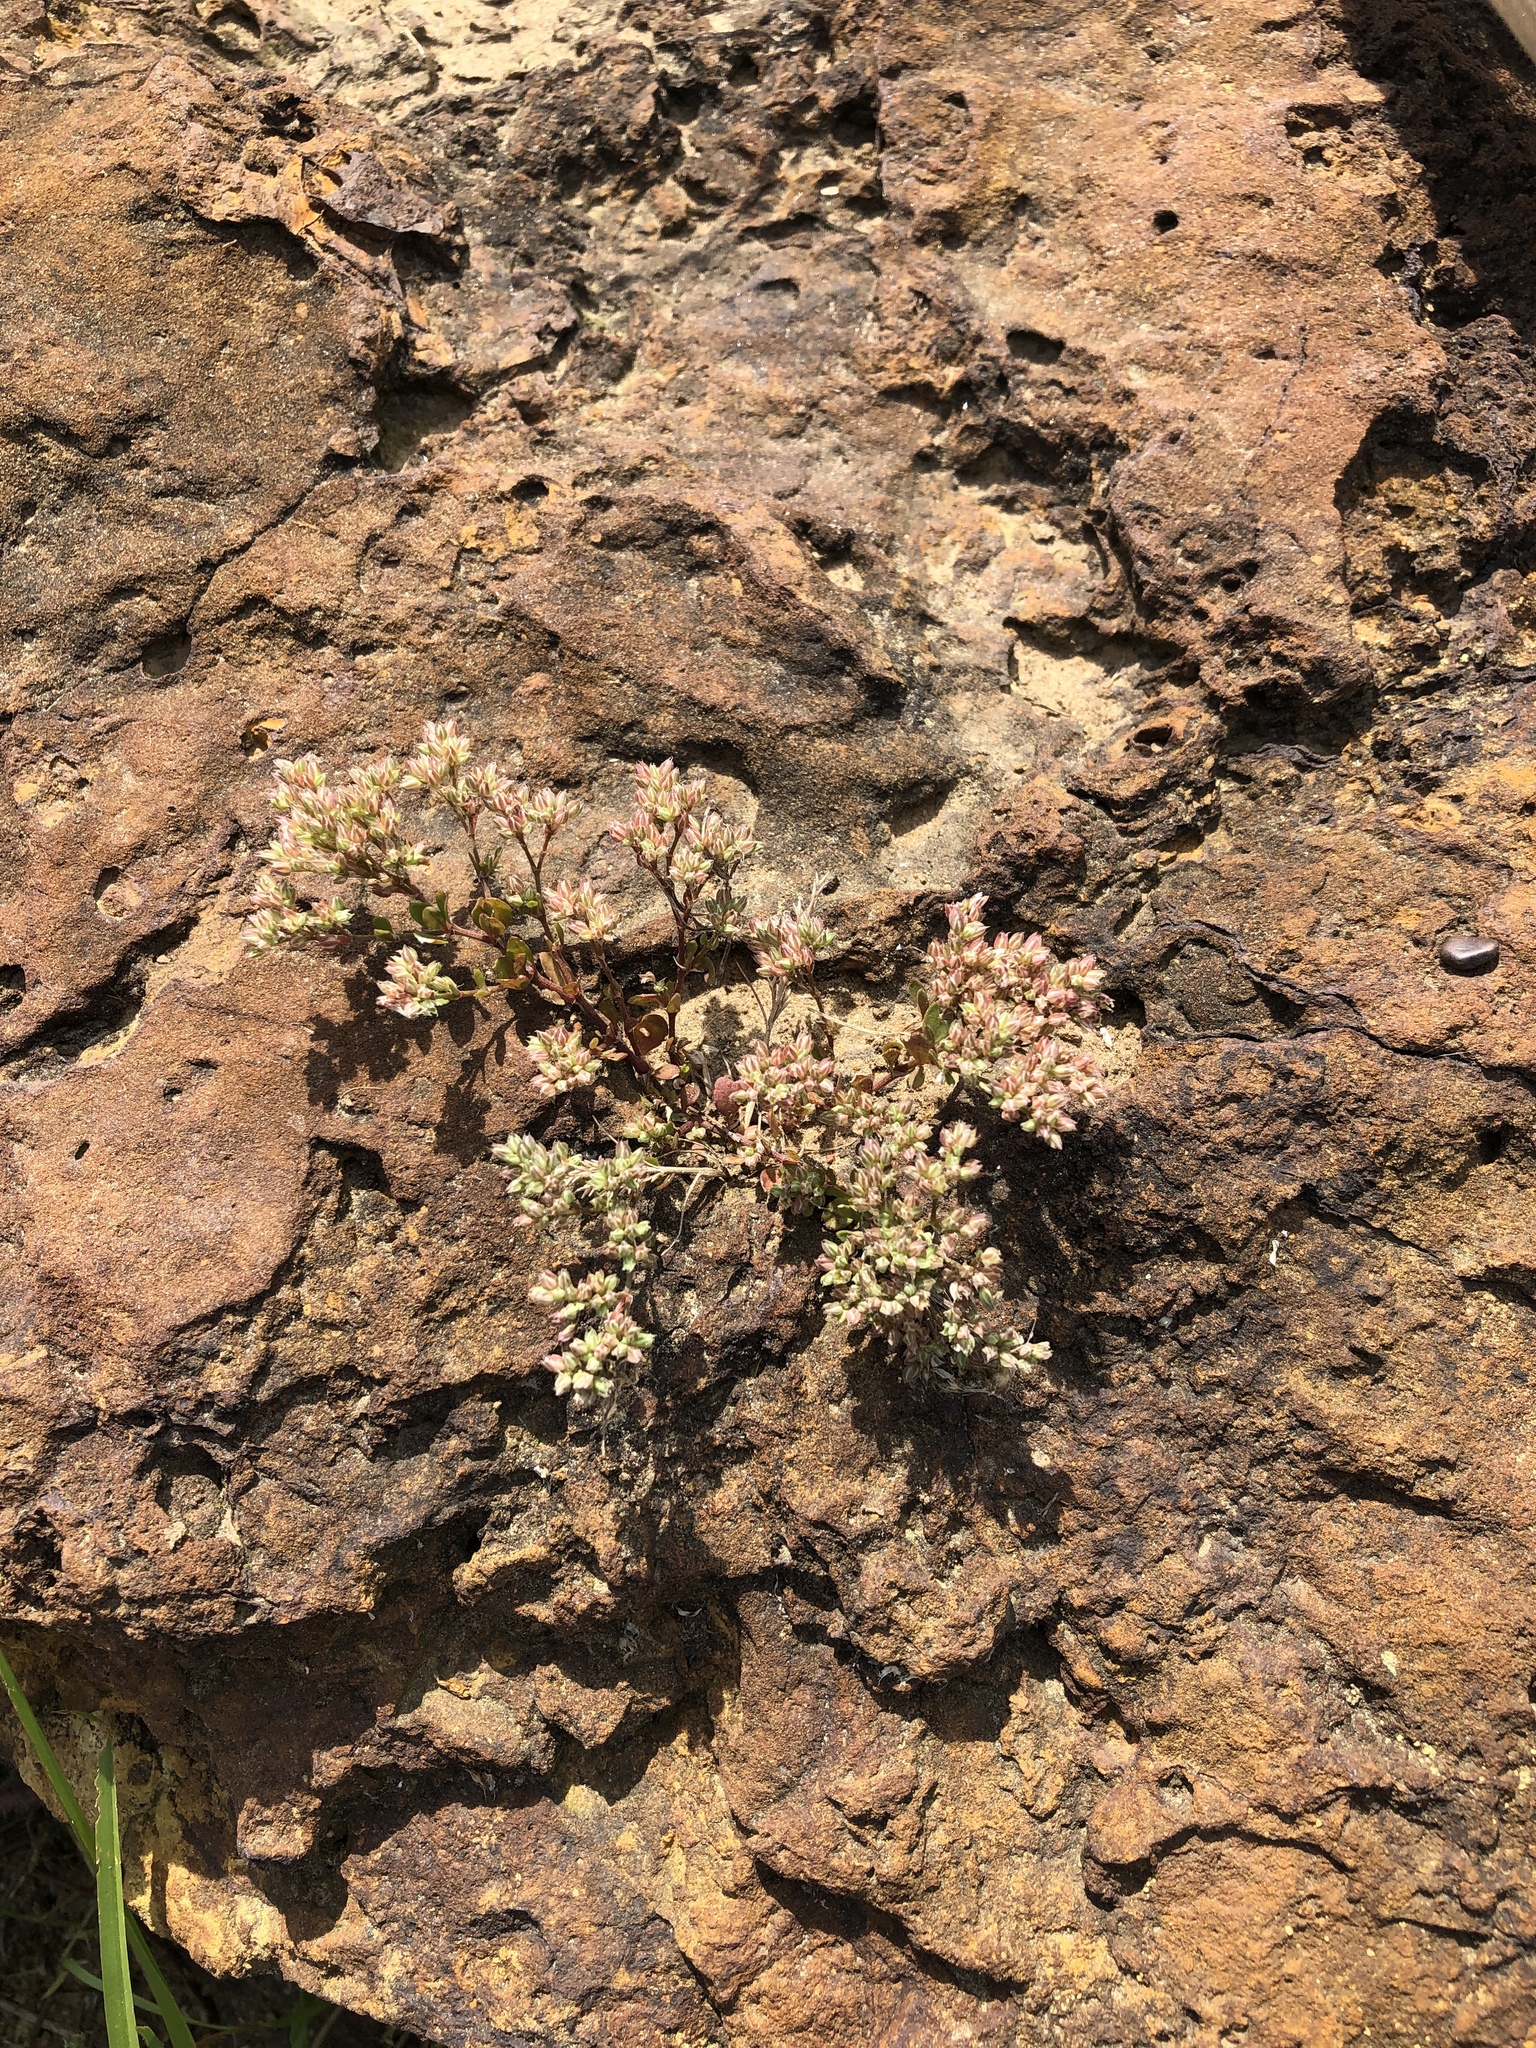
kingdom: Plantae
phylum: Tracheophyta
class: Magnoliopsida
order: Caryophyllales
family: Caryophyllaceae
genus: Polycarpon
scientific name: Polycarpon tetraphyllum
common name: Four-leaved all-seed
